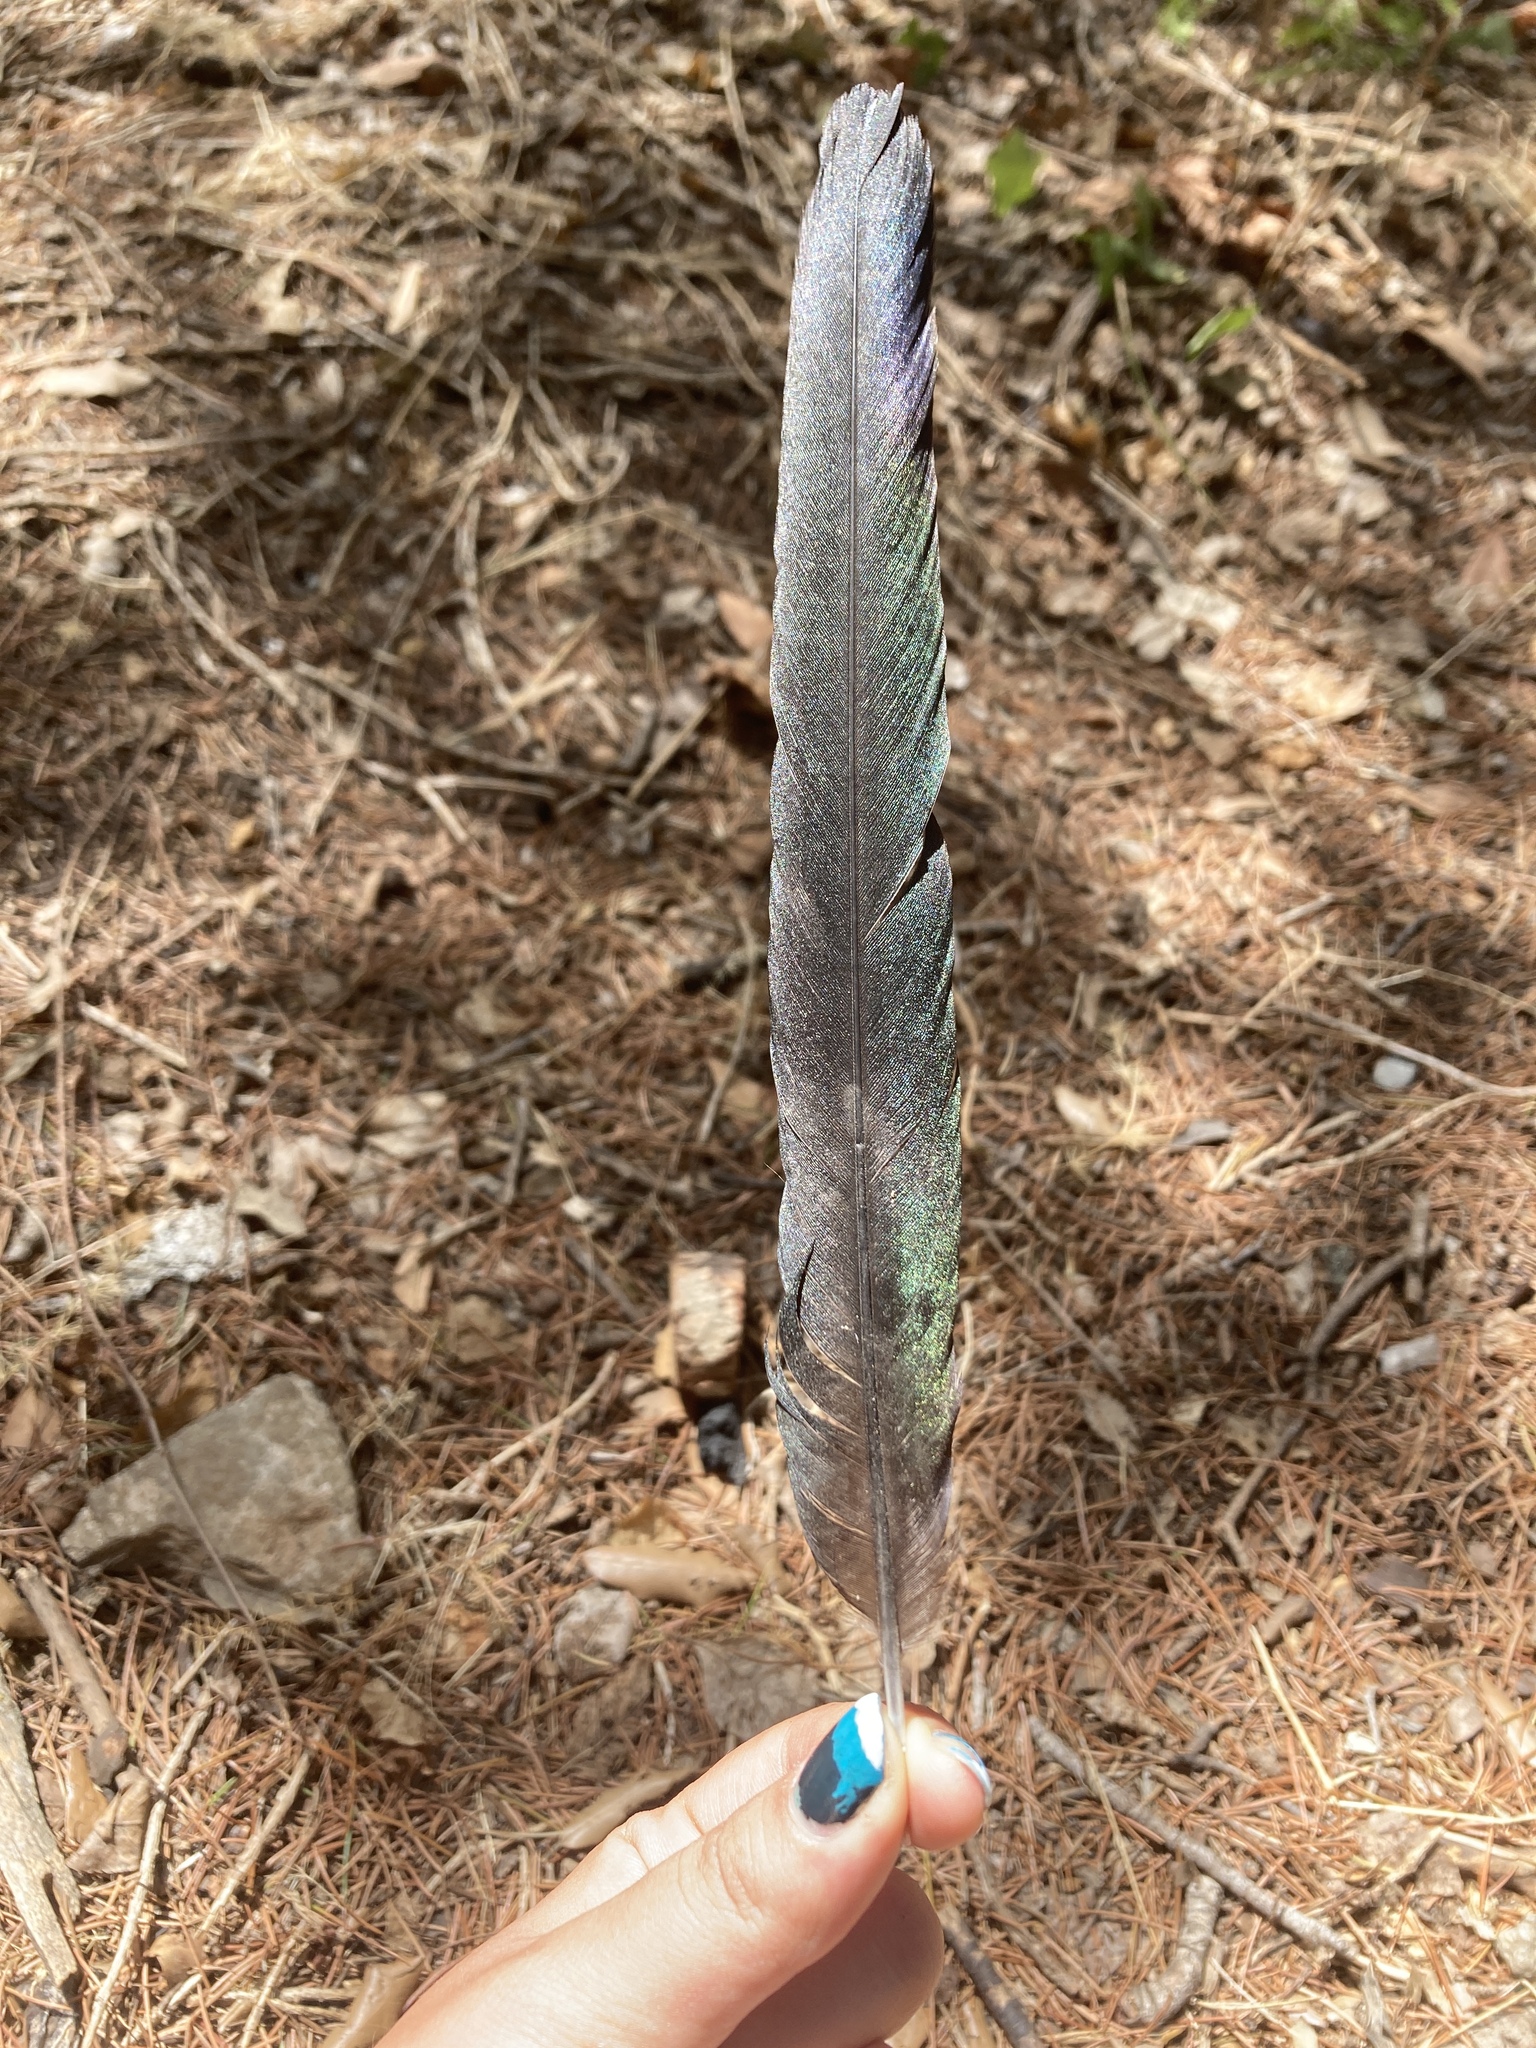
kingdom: Animalia
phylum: Chordata
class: Aves
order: Passeriformes
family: Corvidae
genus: Pica
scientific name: Pica pica
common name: Eurasian magpie
